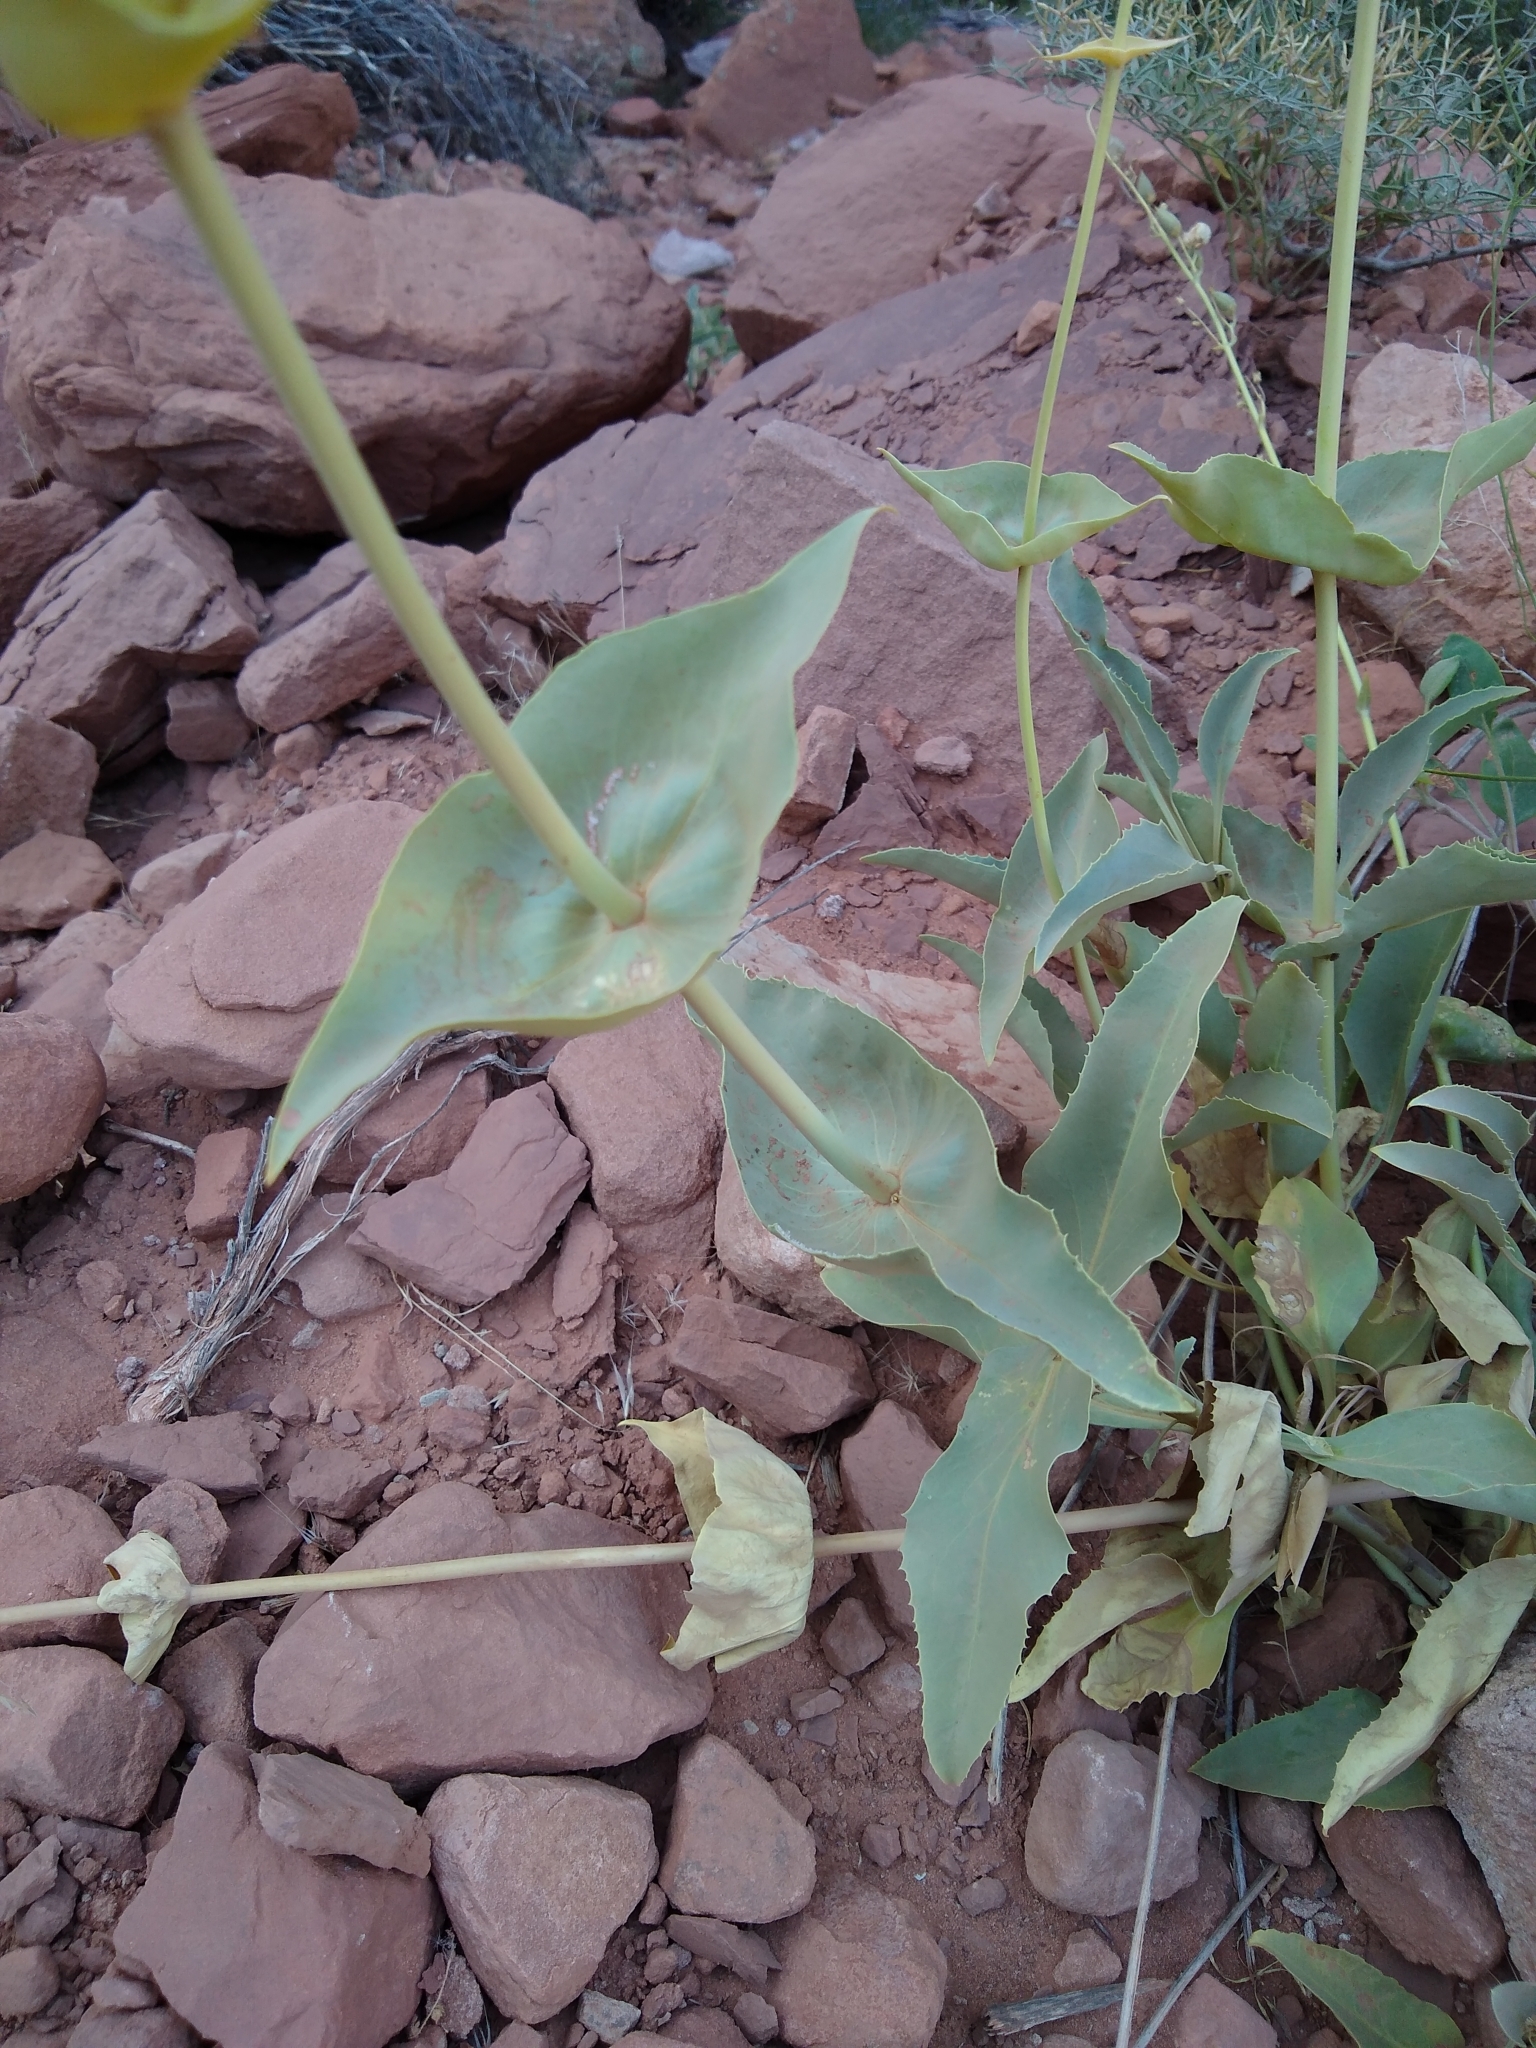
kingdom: Plantae
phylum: Tracheophyta
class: Magnoliopsida
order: Lamiales
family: Plantaginaceae
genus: Penstemon
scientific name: Penstemon palmeri
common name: Palmer penstemon
